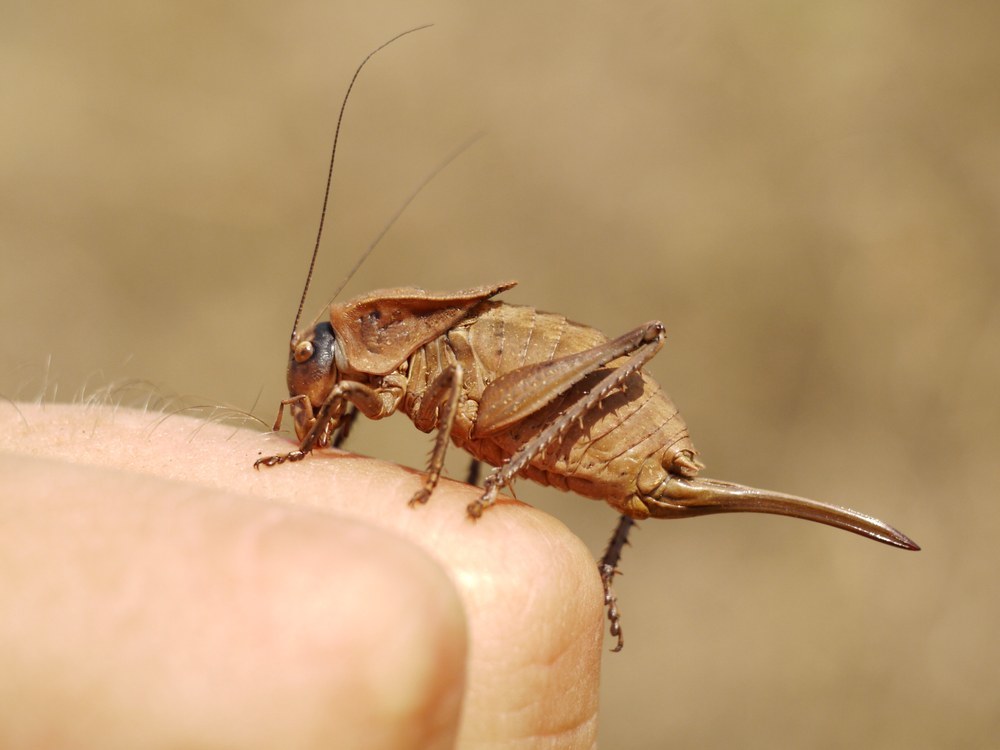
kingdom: Animalia
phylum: Arthropoda
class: Insecta
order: Orthoptera
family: Tettigoniidae
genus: Onconotus
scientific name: Onconotus servillei
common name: Southern barbed-wire bush-cricket
